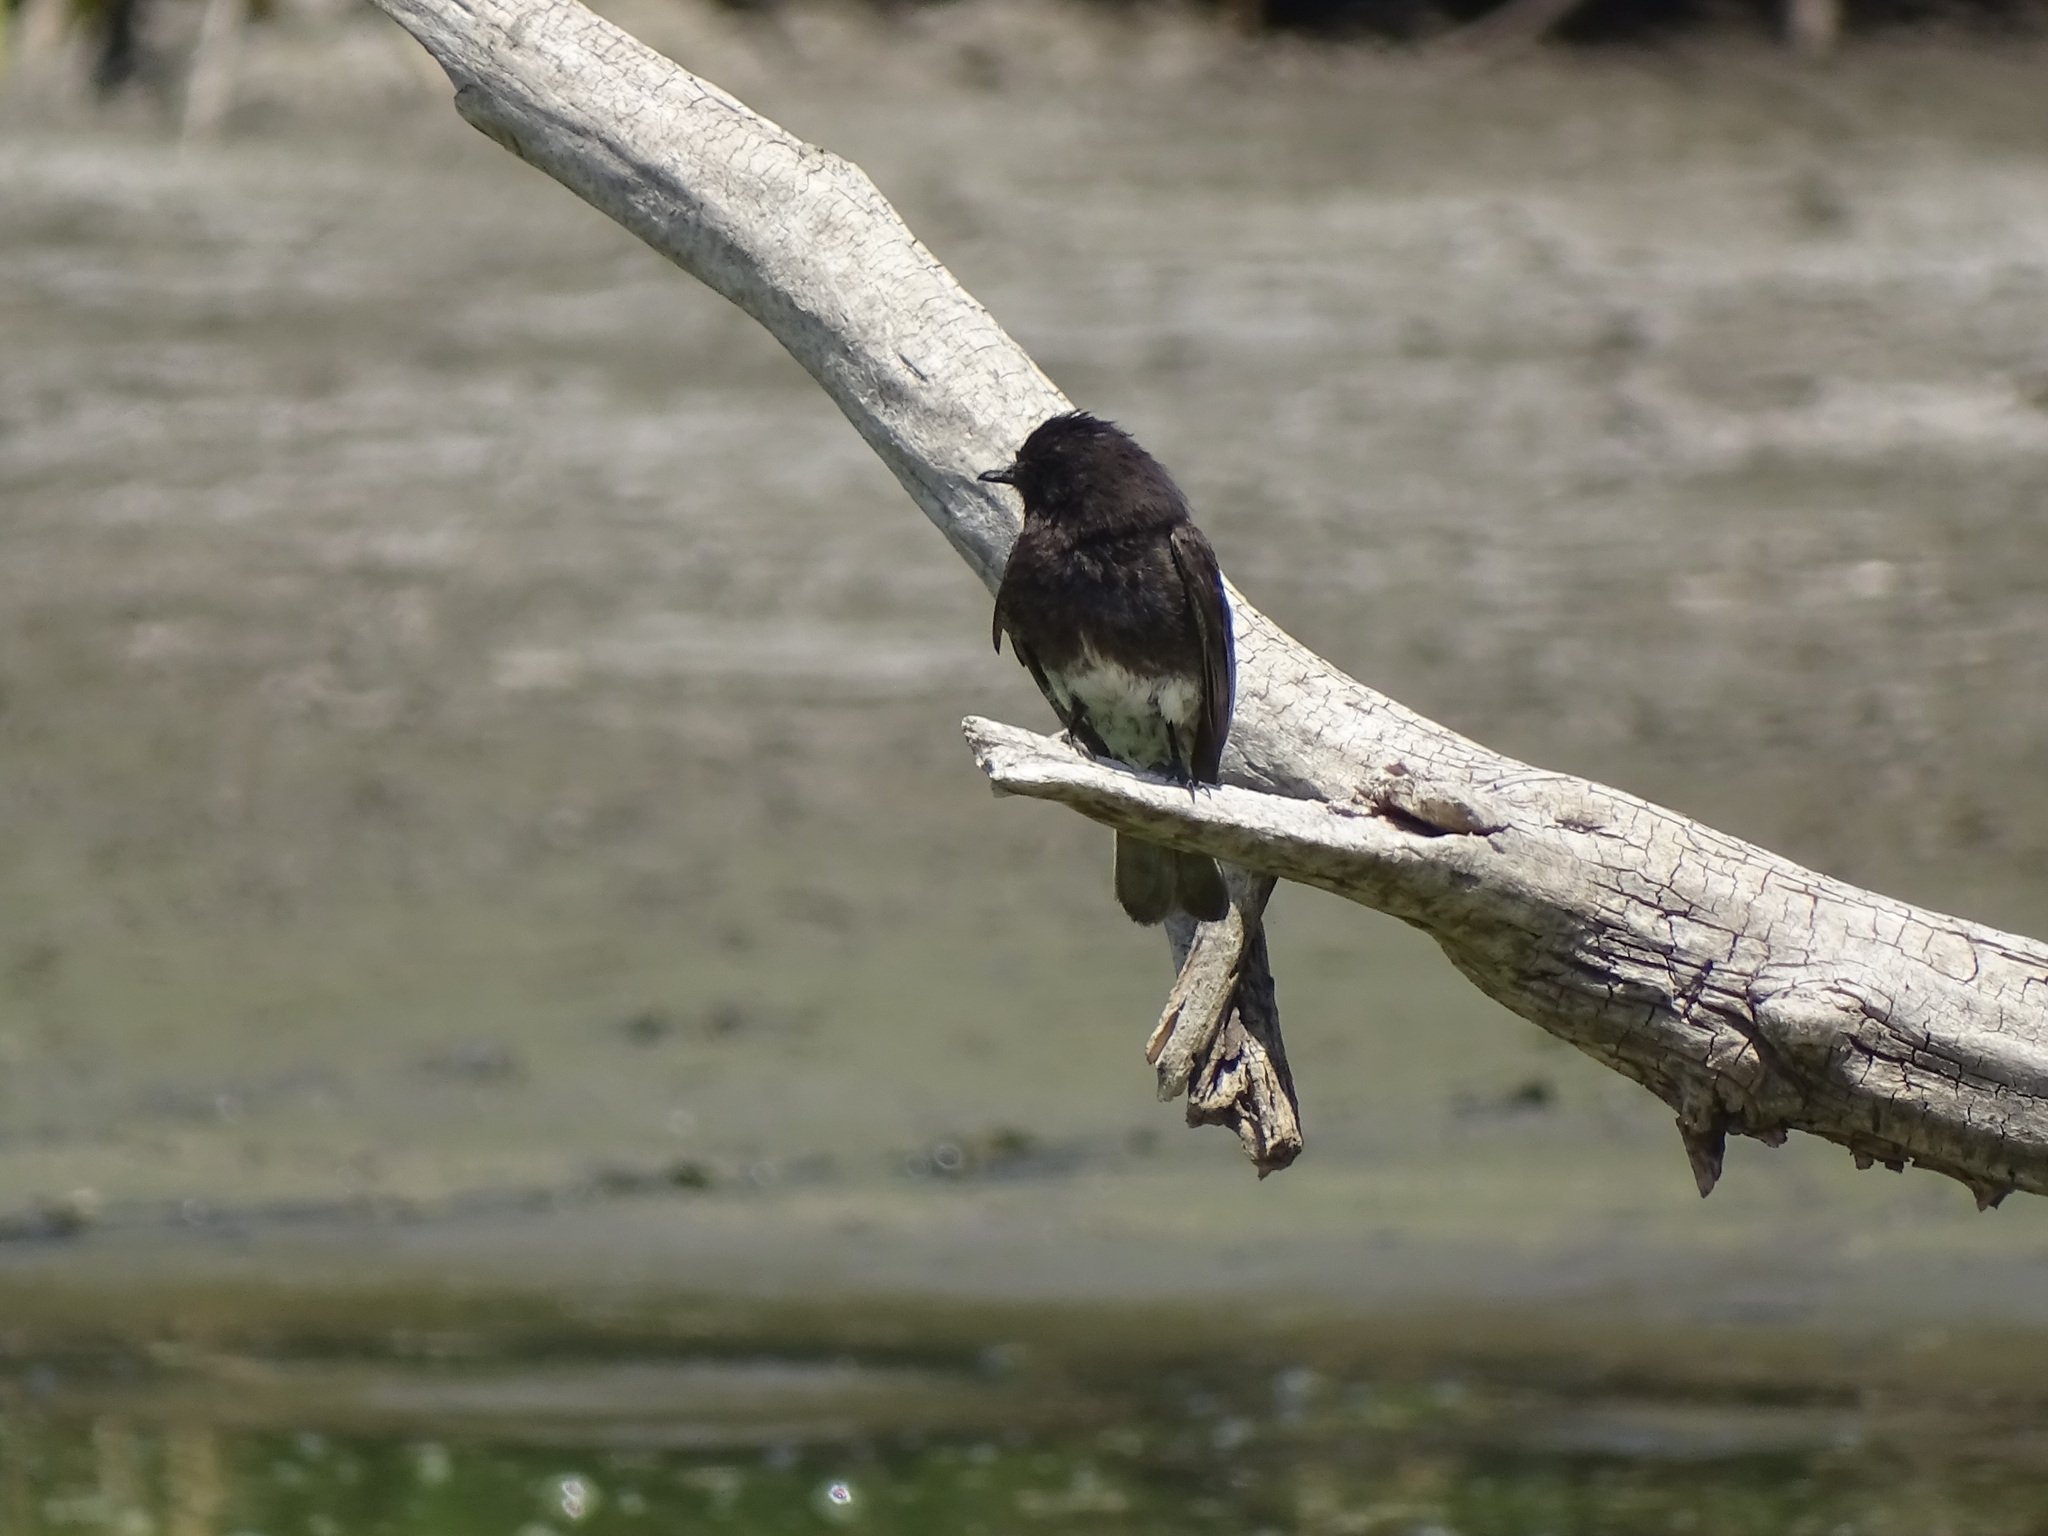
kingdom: Animalia
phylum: Chordata
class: Aves
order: Passeriformes
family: Tyrannidae
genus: Sayornis
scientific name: Sayornis nigricans
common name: Black phoebe
